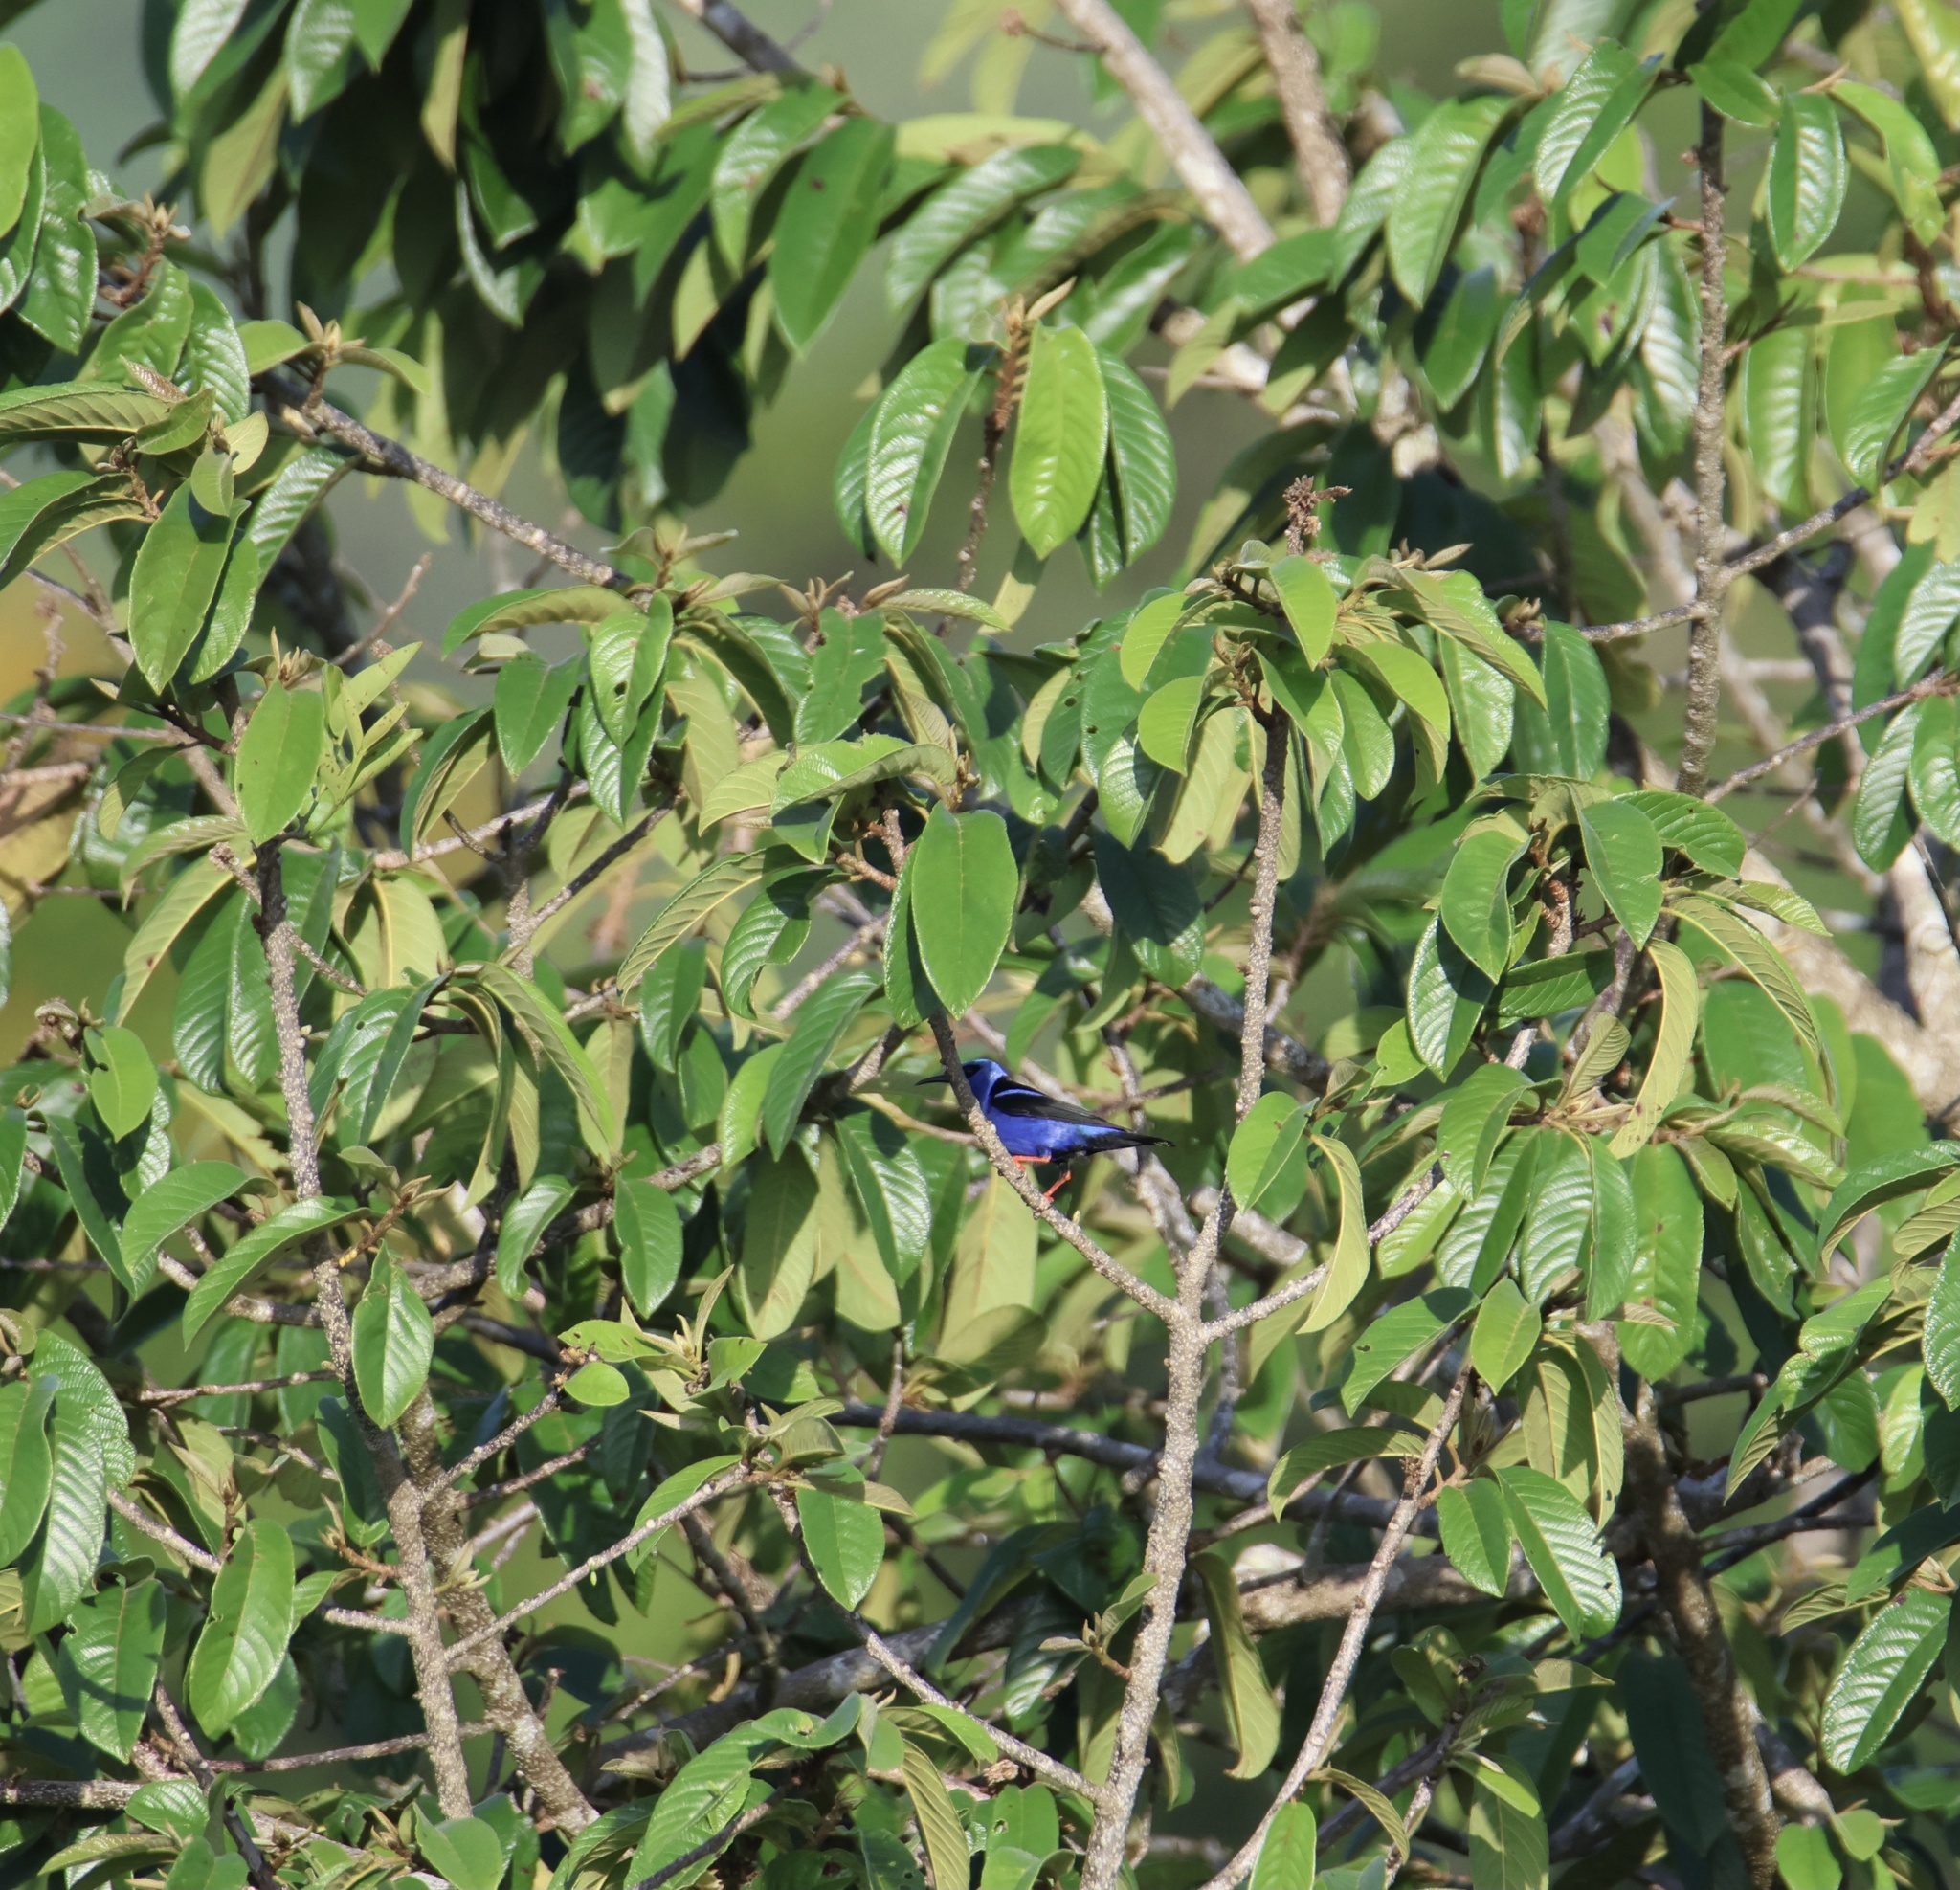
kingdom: Animalia
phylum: Chordata
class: Aves
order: Passeriformes
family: Thraupidae
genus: Cyanerpes
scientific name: Cyanerpes cyaneus
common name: Red-legged honeycreeper
